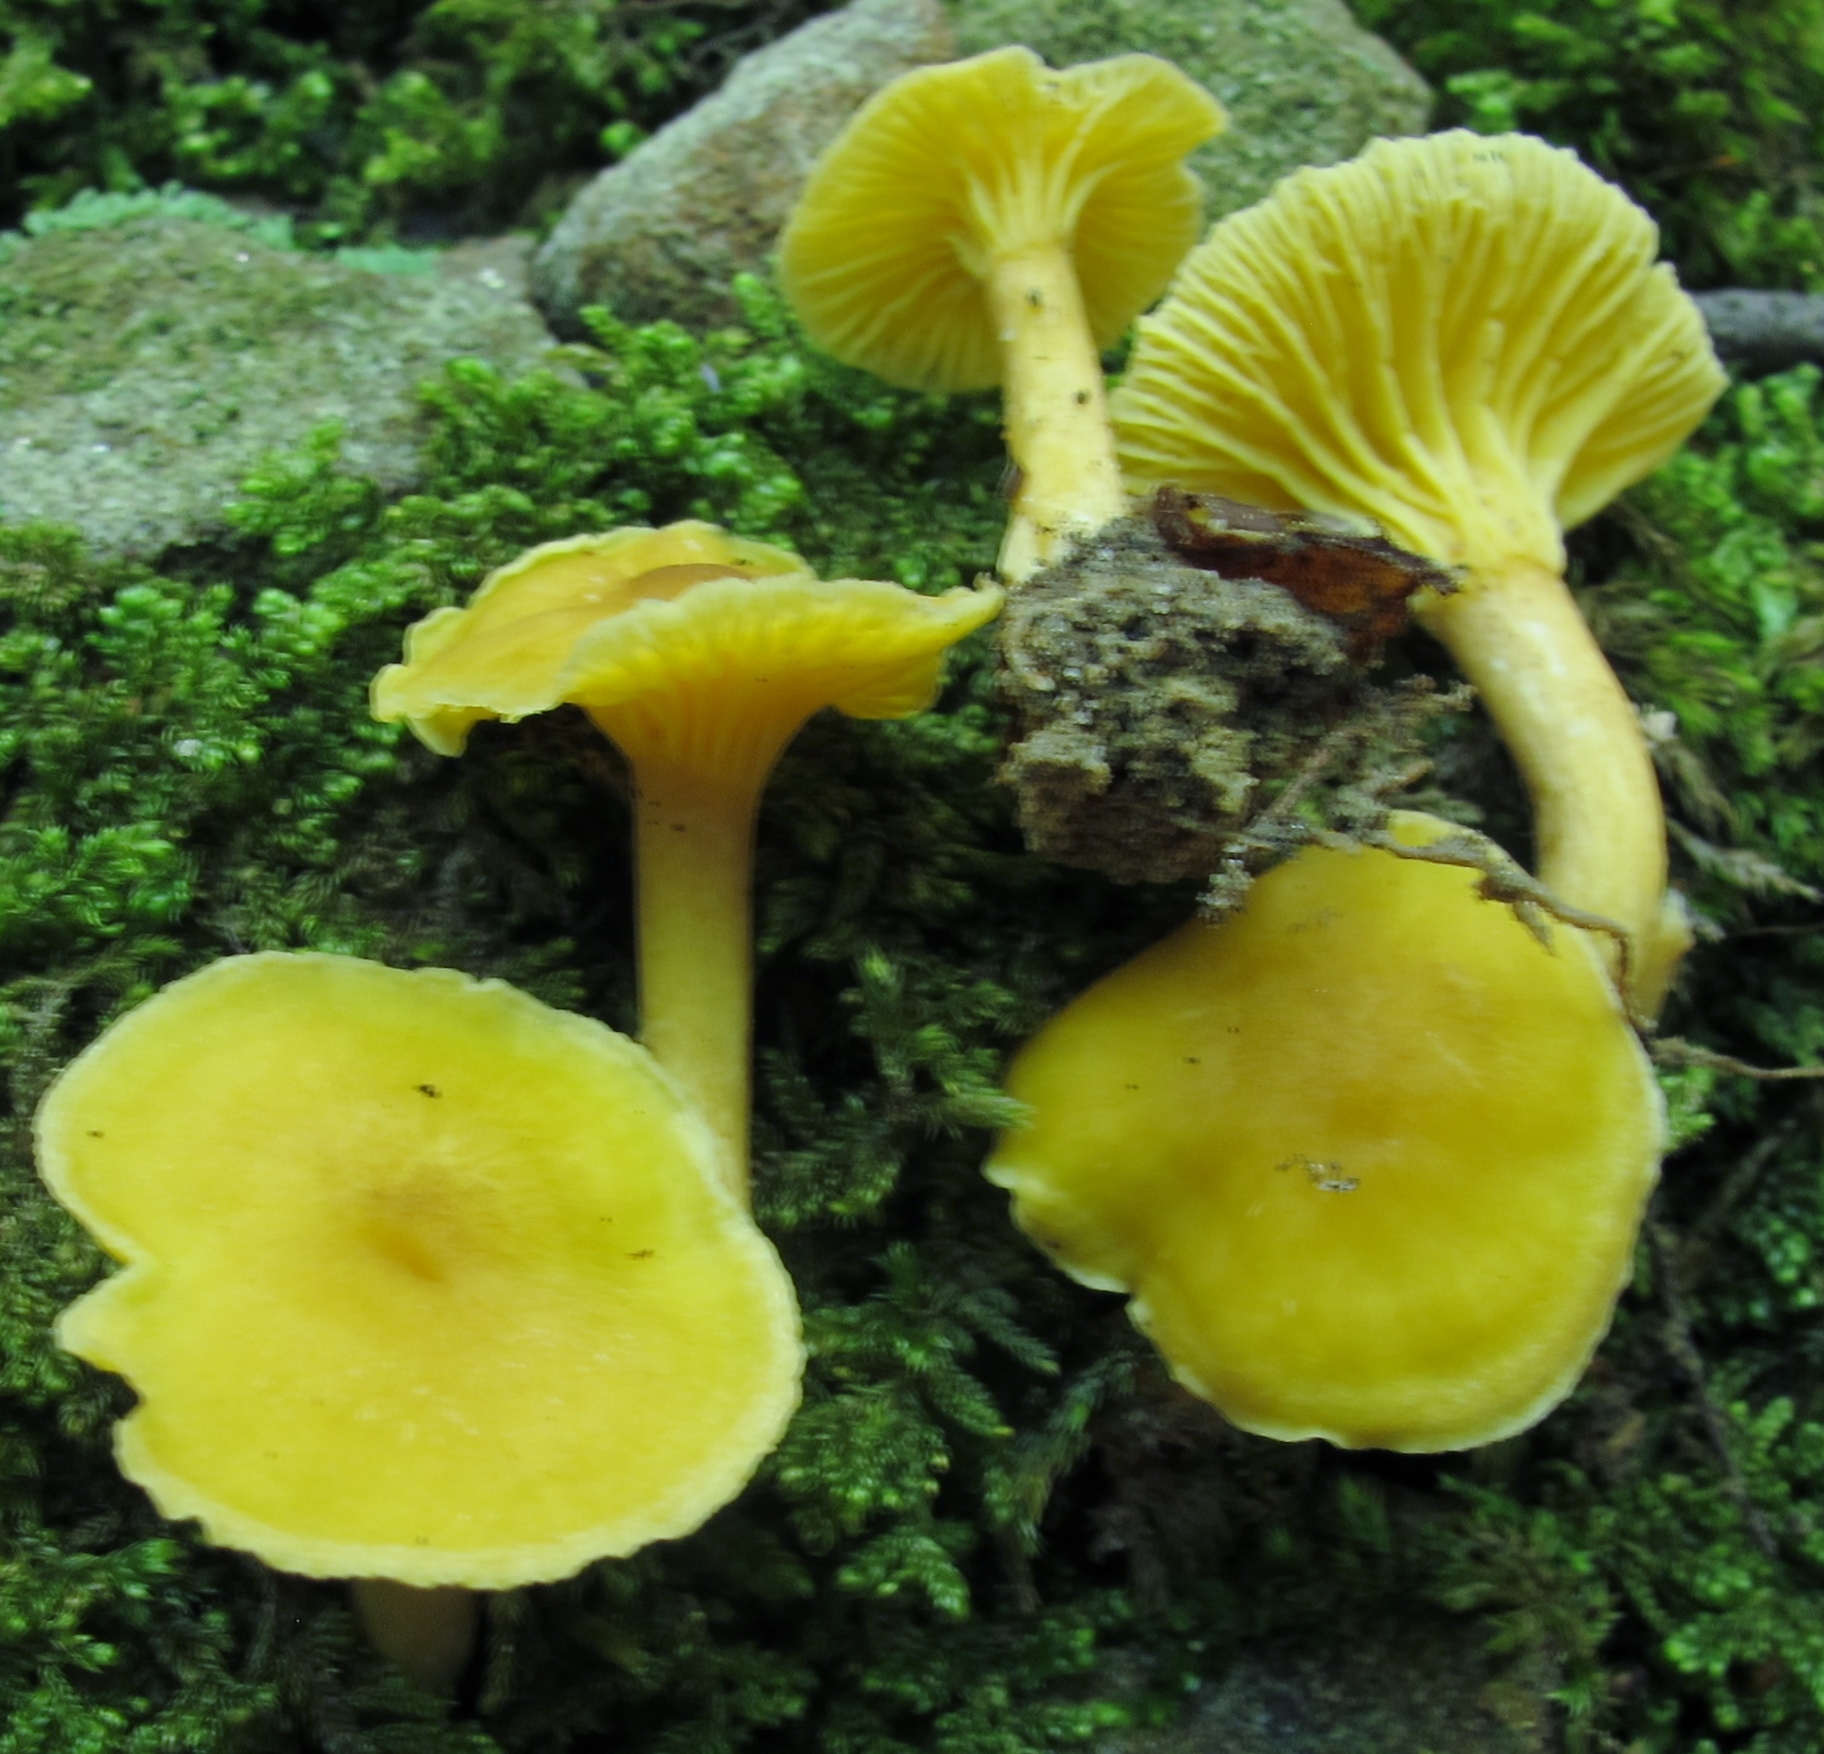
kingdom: Fungi
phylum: Basidiomycota
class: Agaricomycetes
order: Cantharellales
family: Hydnaceae
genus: Cantharellus
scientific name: Cantharellus appalachiensis
